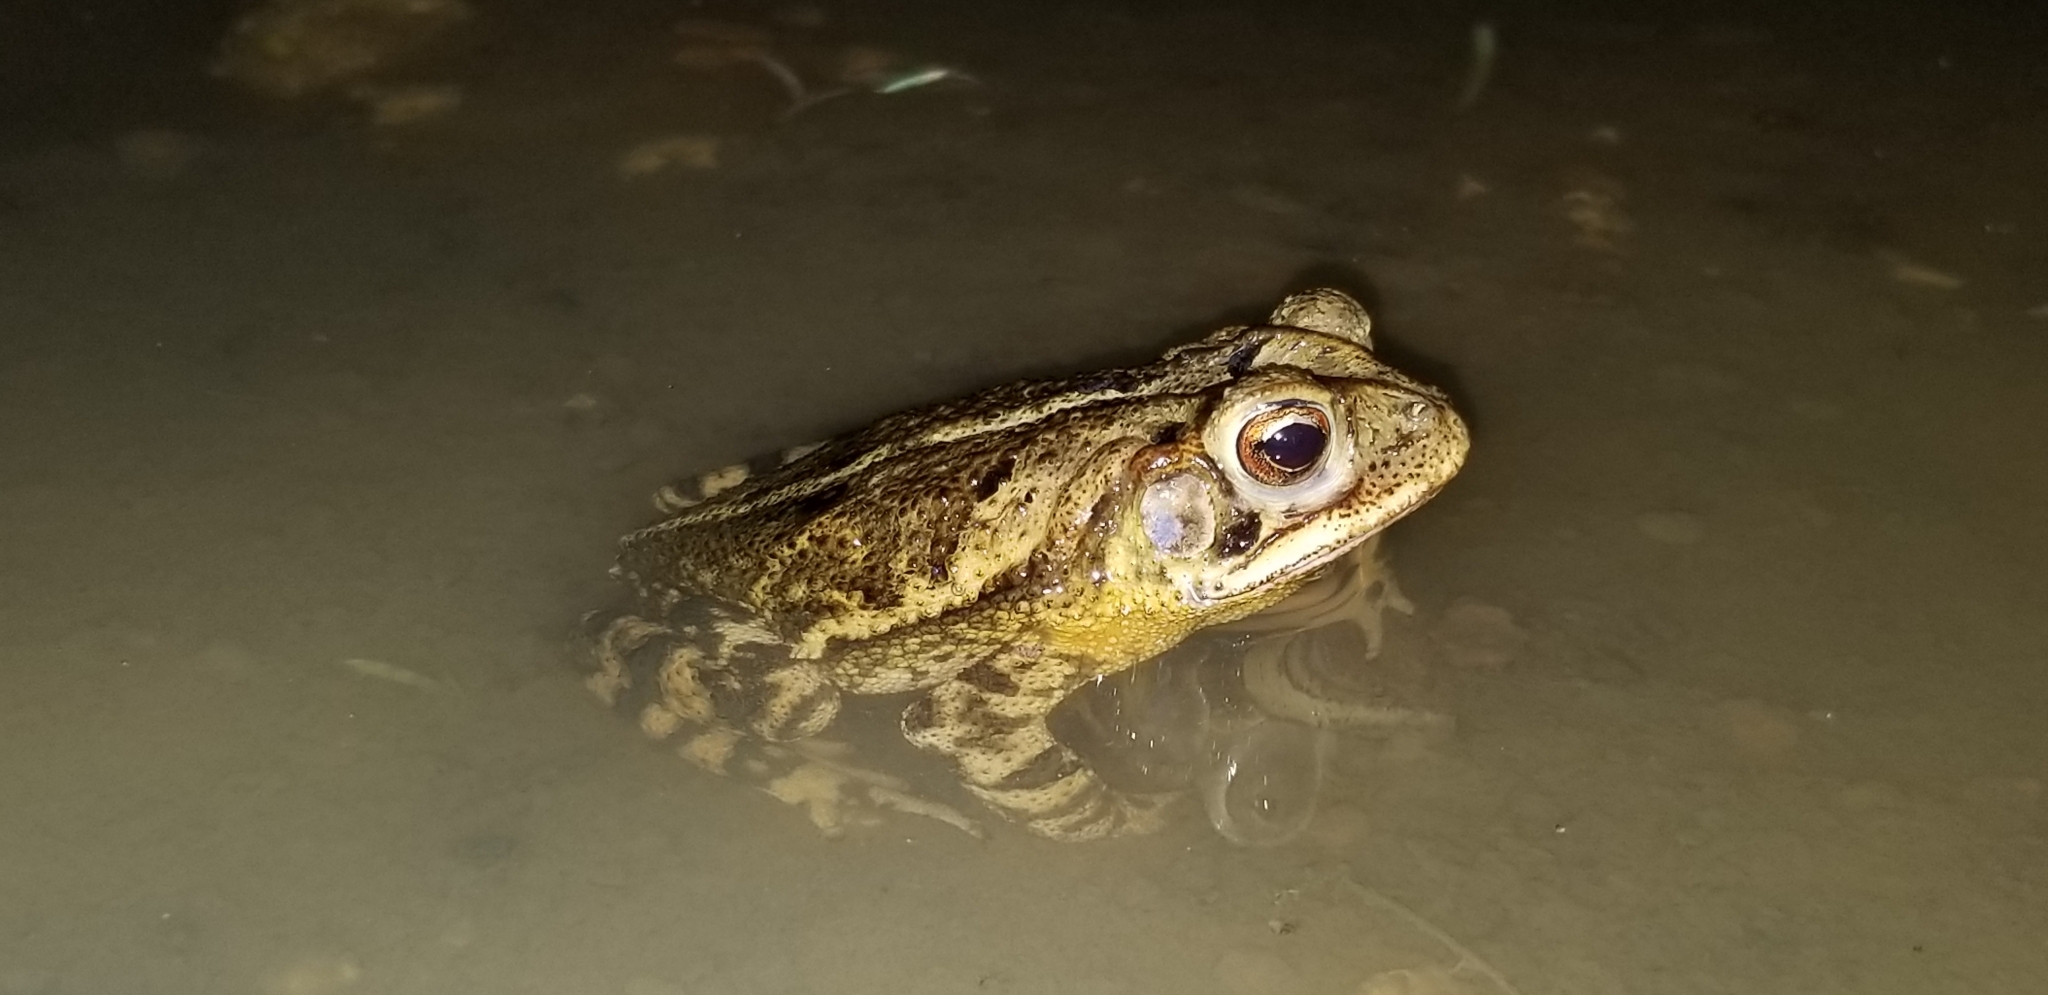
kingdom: Animalia
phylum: Chordata
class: Amphibia
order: Anura
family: Bufonidae
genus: Incilius
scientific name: Incilius nebulifer
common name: Gulf coast toad
